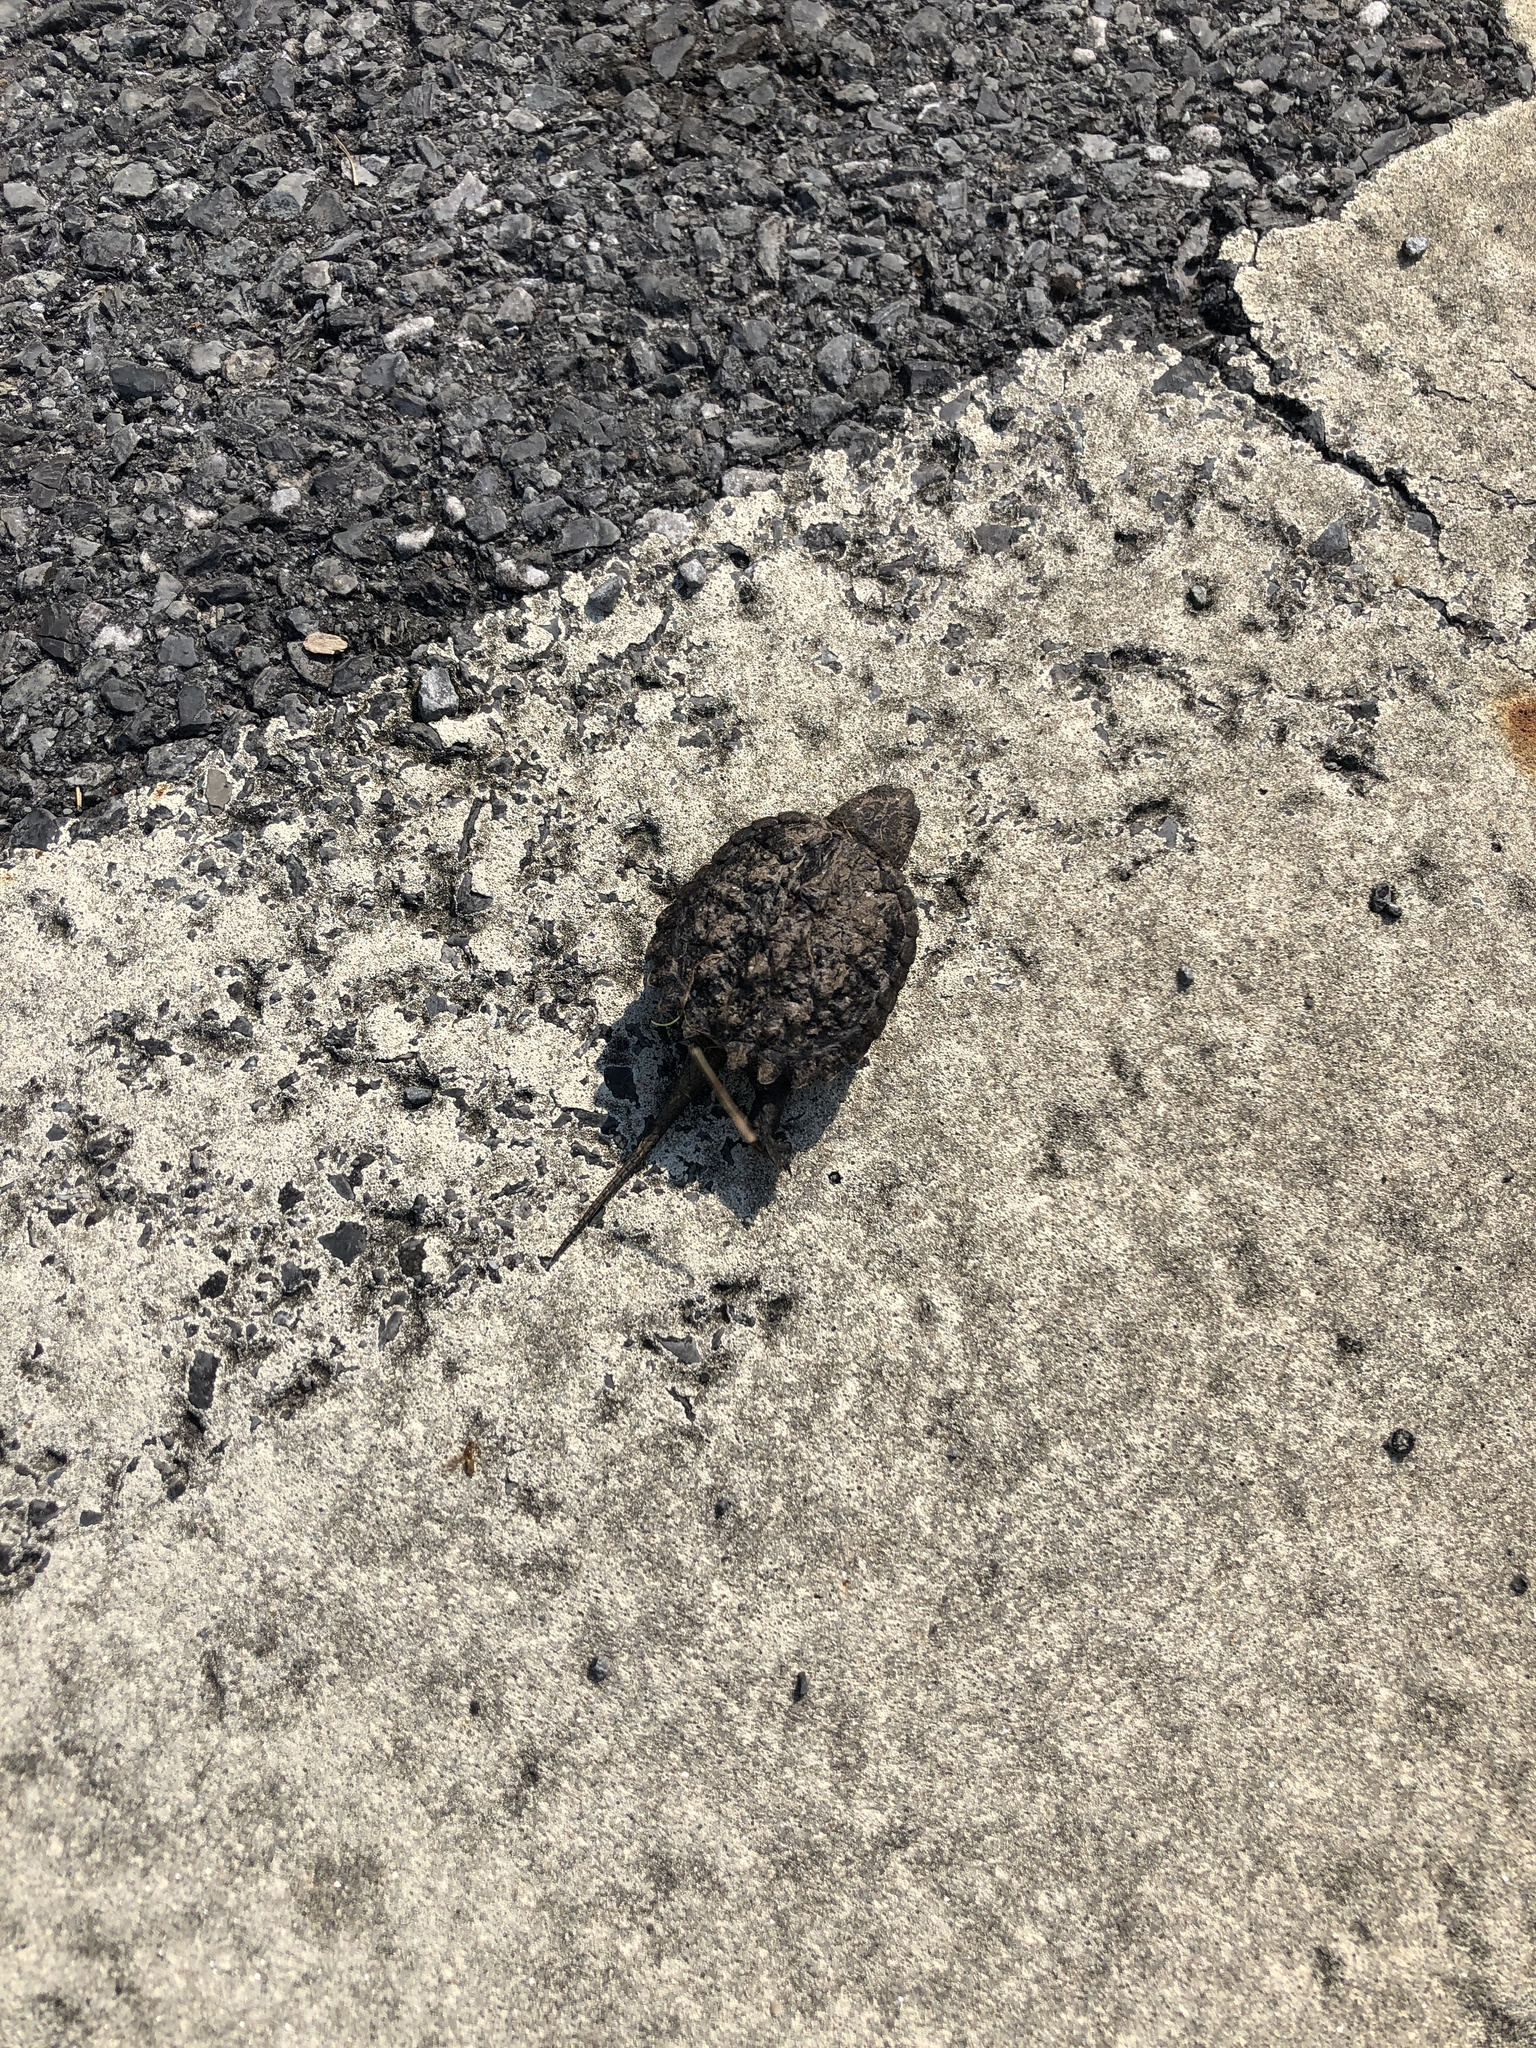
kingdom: Animalia
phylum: Chordata
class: Testudines
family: Chelydridae
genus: Chelydra
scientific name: Chelydra serpentina
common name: Common snapping turtle
